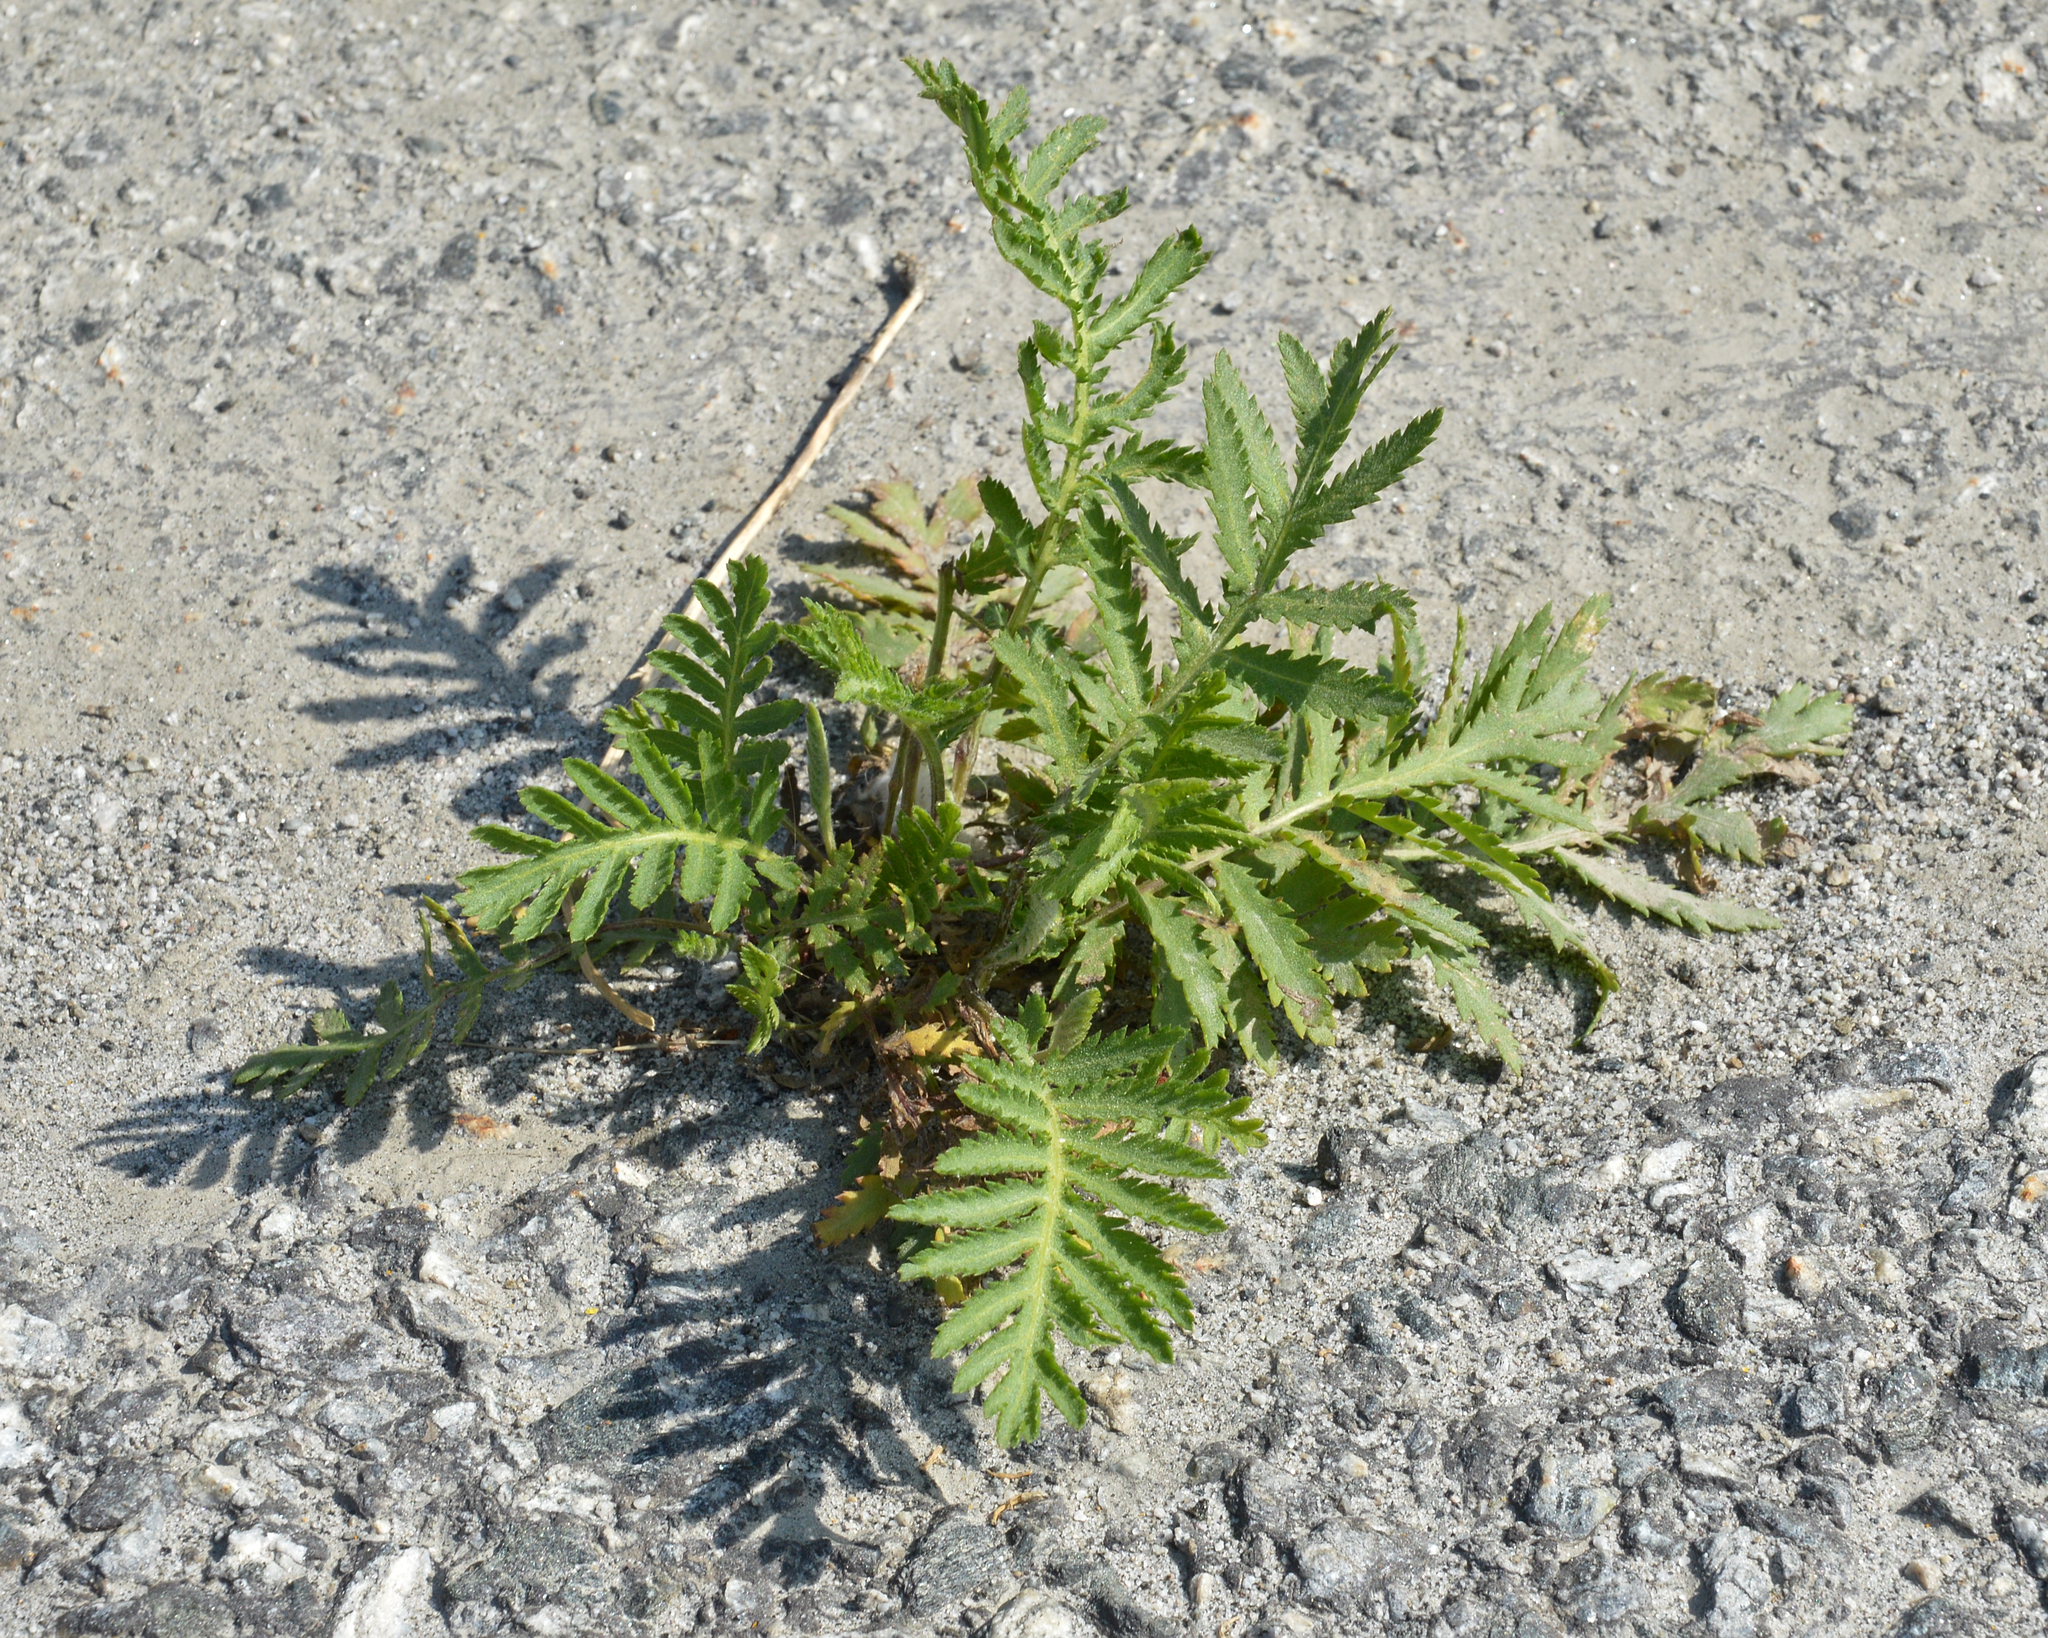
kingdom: Plantae
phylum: Tracheophyta
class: Magnoliopsida
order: Asterales
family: Asteraceae
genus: Tanacetum
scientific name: Tanacetum vulgare
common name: Common tansy
